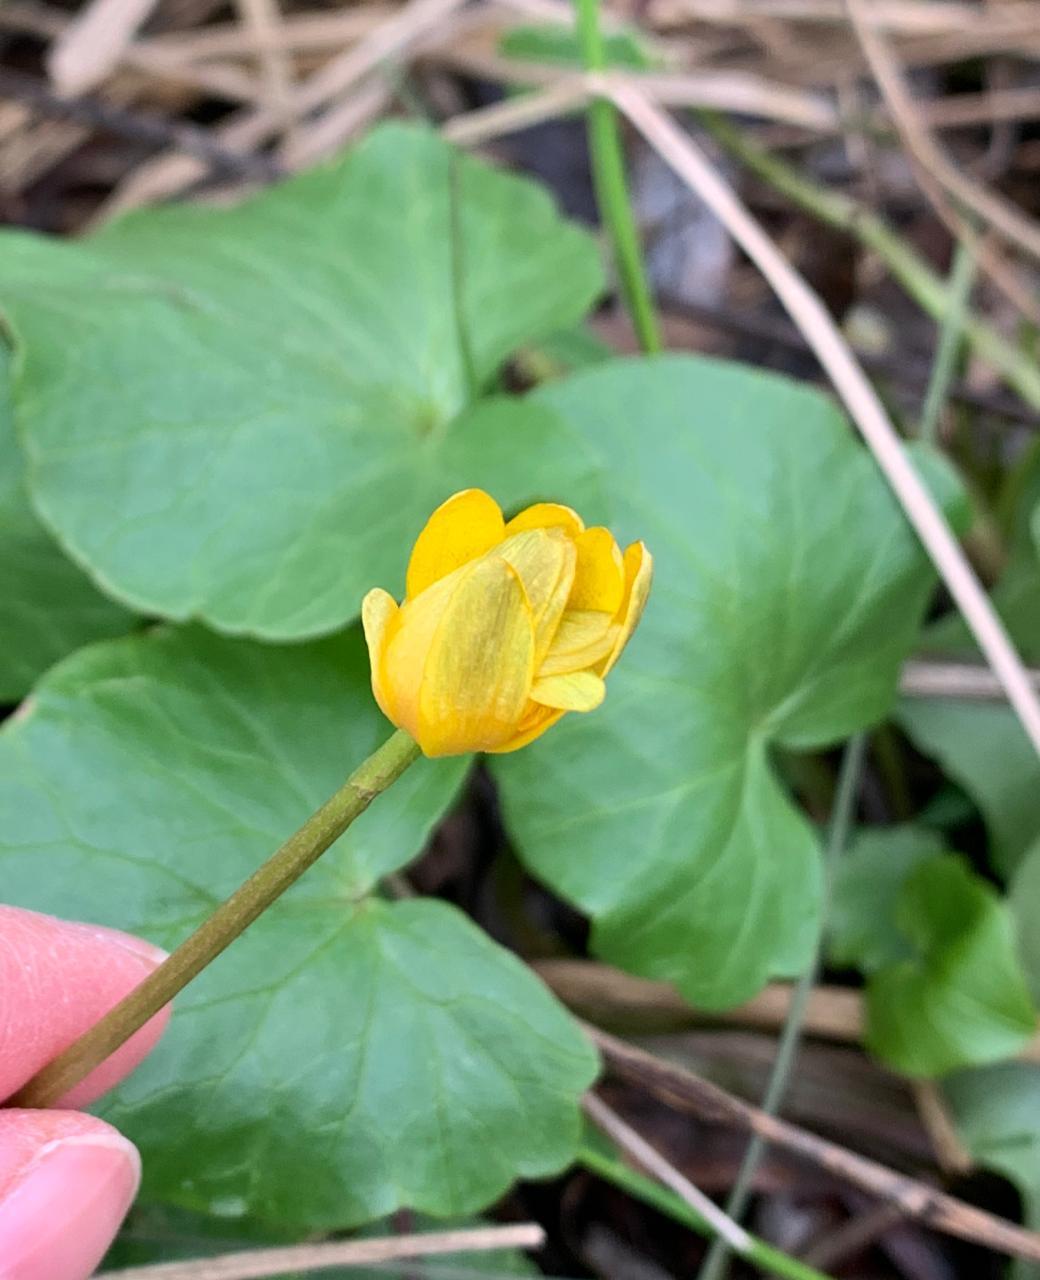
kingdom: Plantae
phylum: Tracheophyta
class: Magnoliopsida
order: Ranunculales
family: Ranunculaceae
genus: Ficaria
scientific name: Ficaria verna
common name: Lesser celandine
